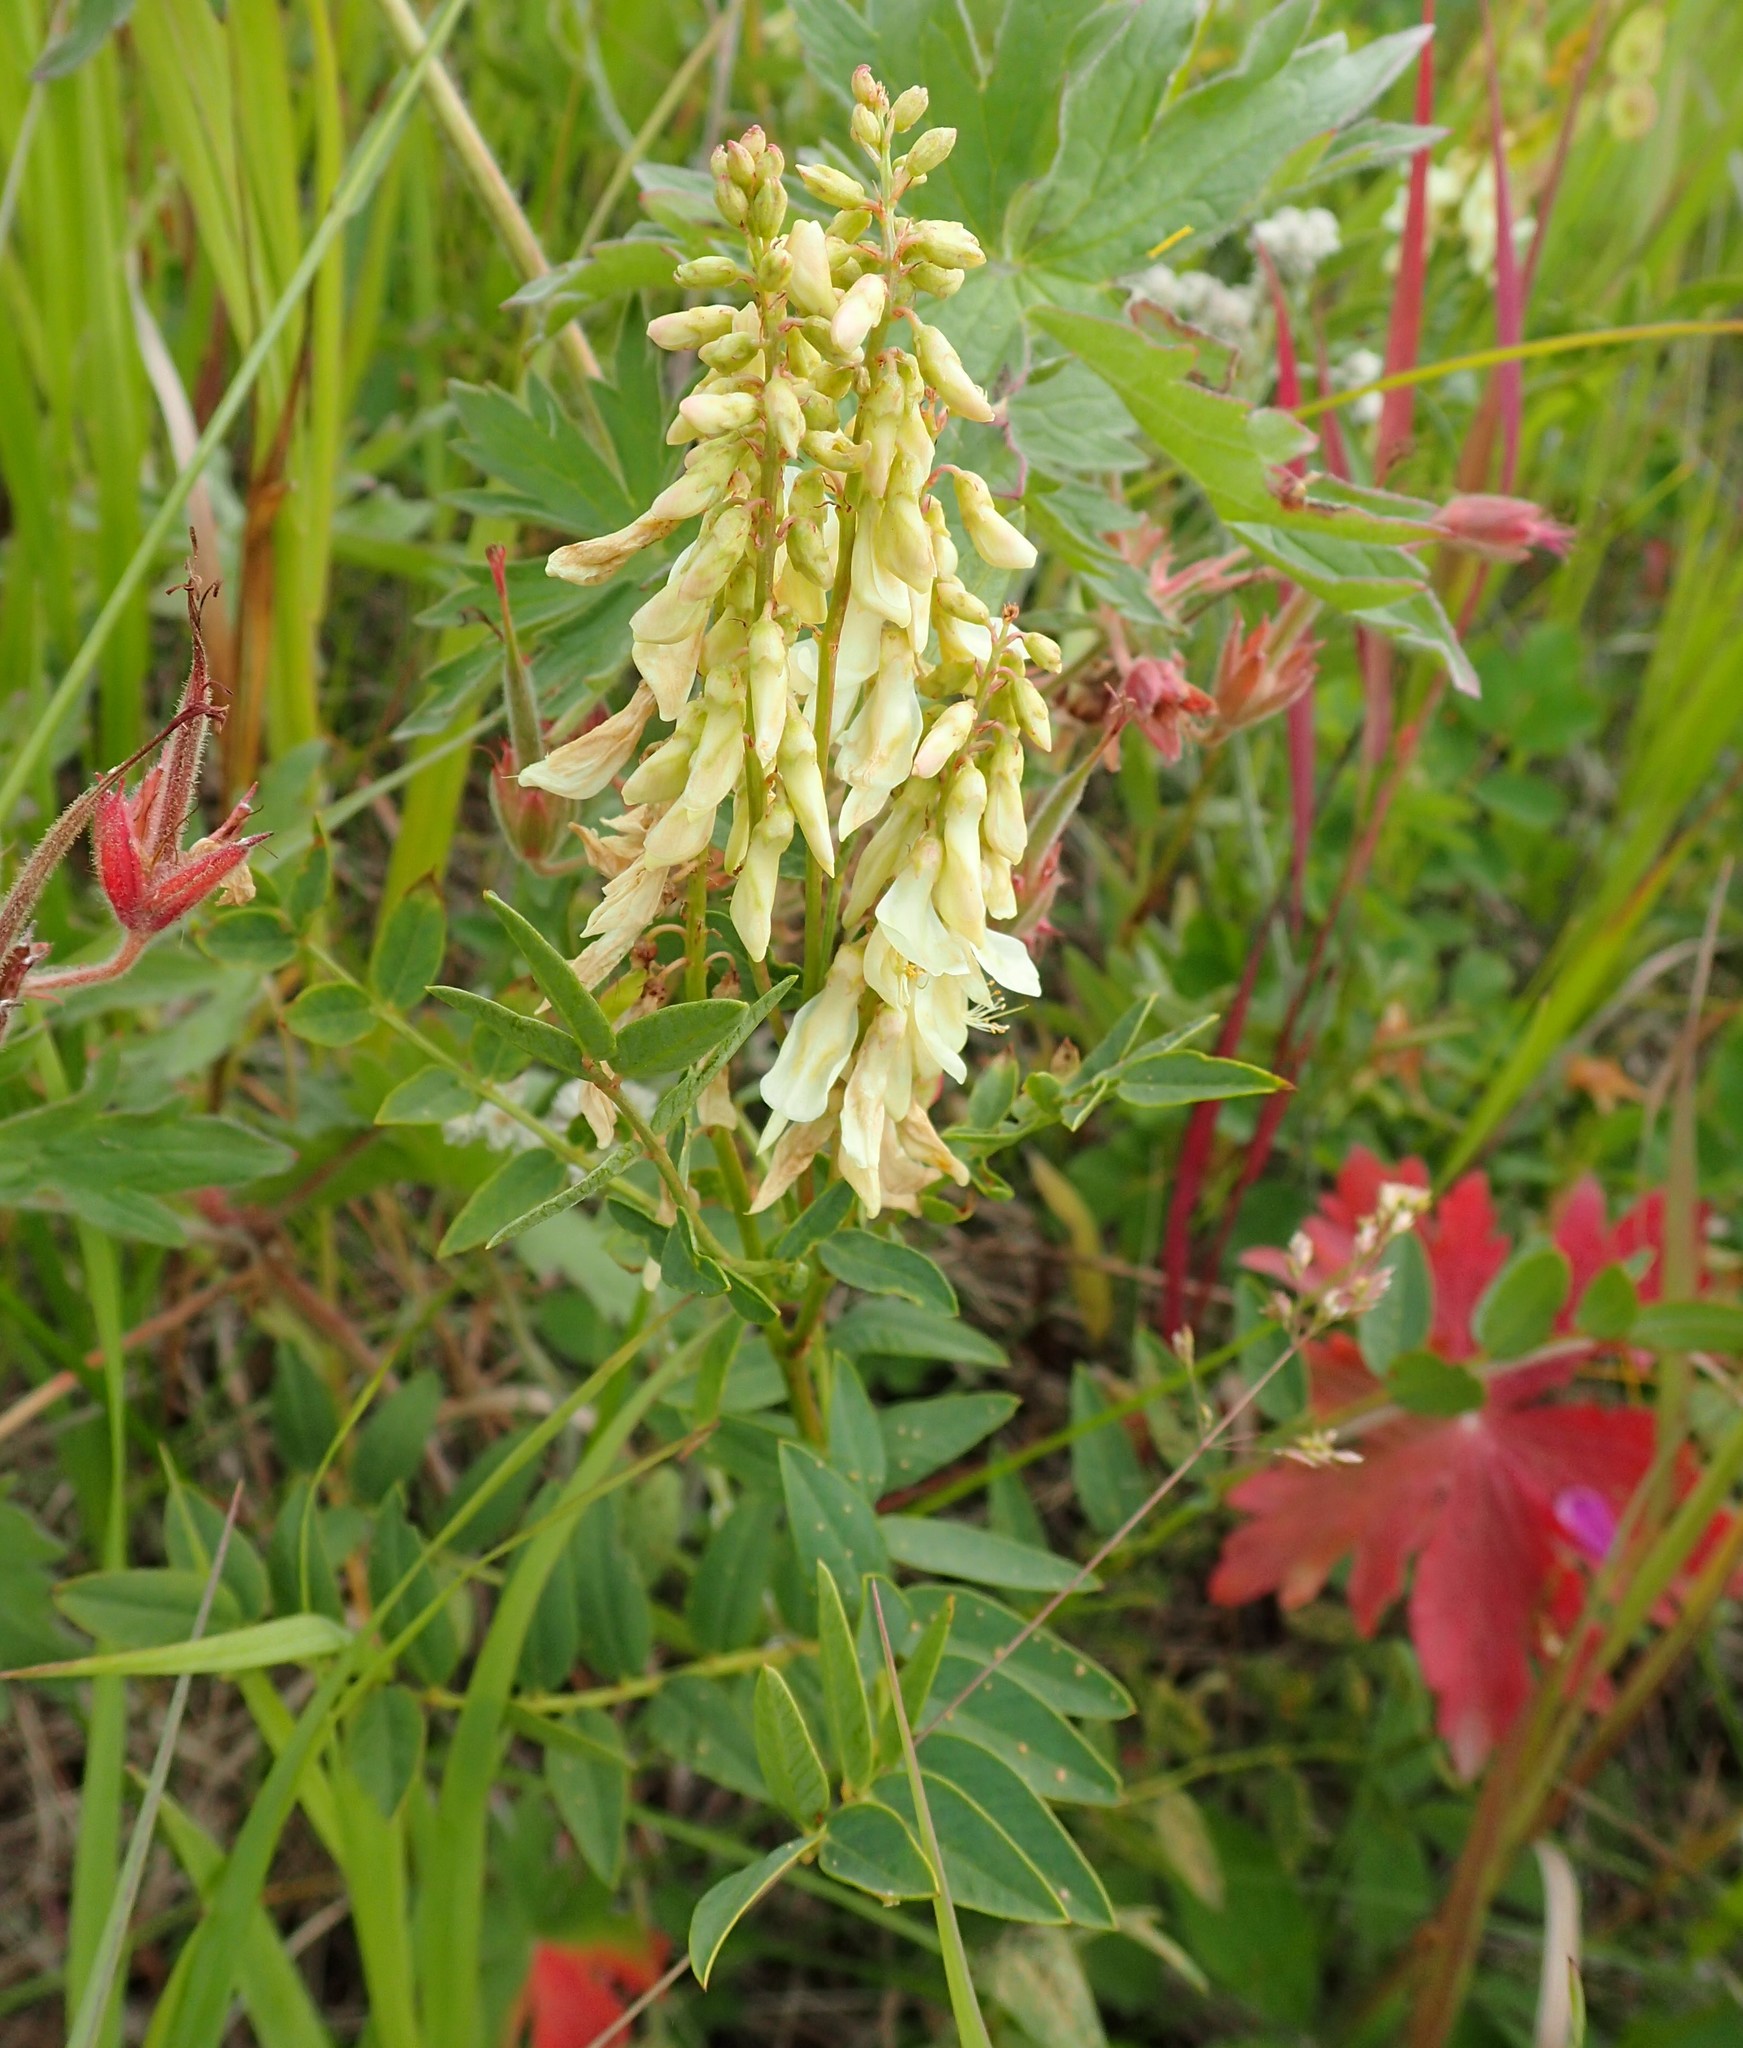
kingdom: Plantae
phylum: Tracheophyta
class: Magnoliopsida
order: Fabales
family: Fabaceae
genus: Hedysarum
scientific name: Hedysarum sulphurescens
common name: Sulphur hedysarum
